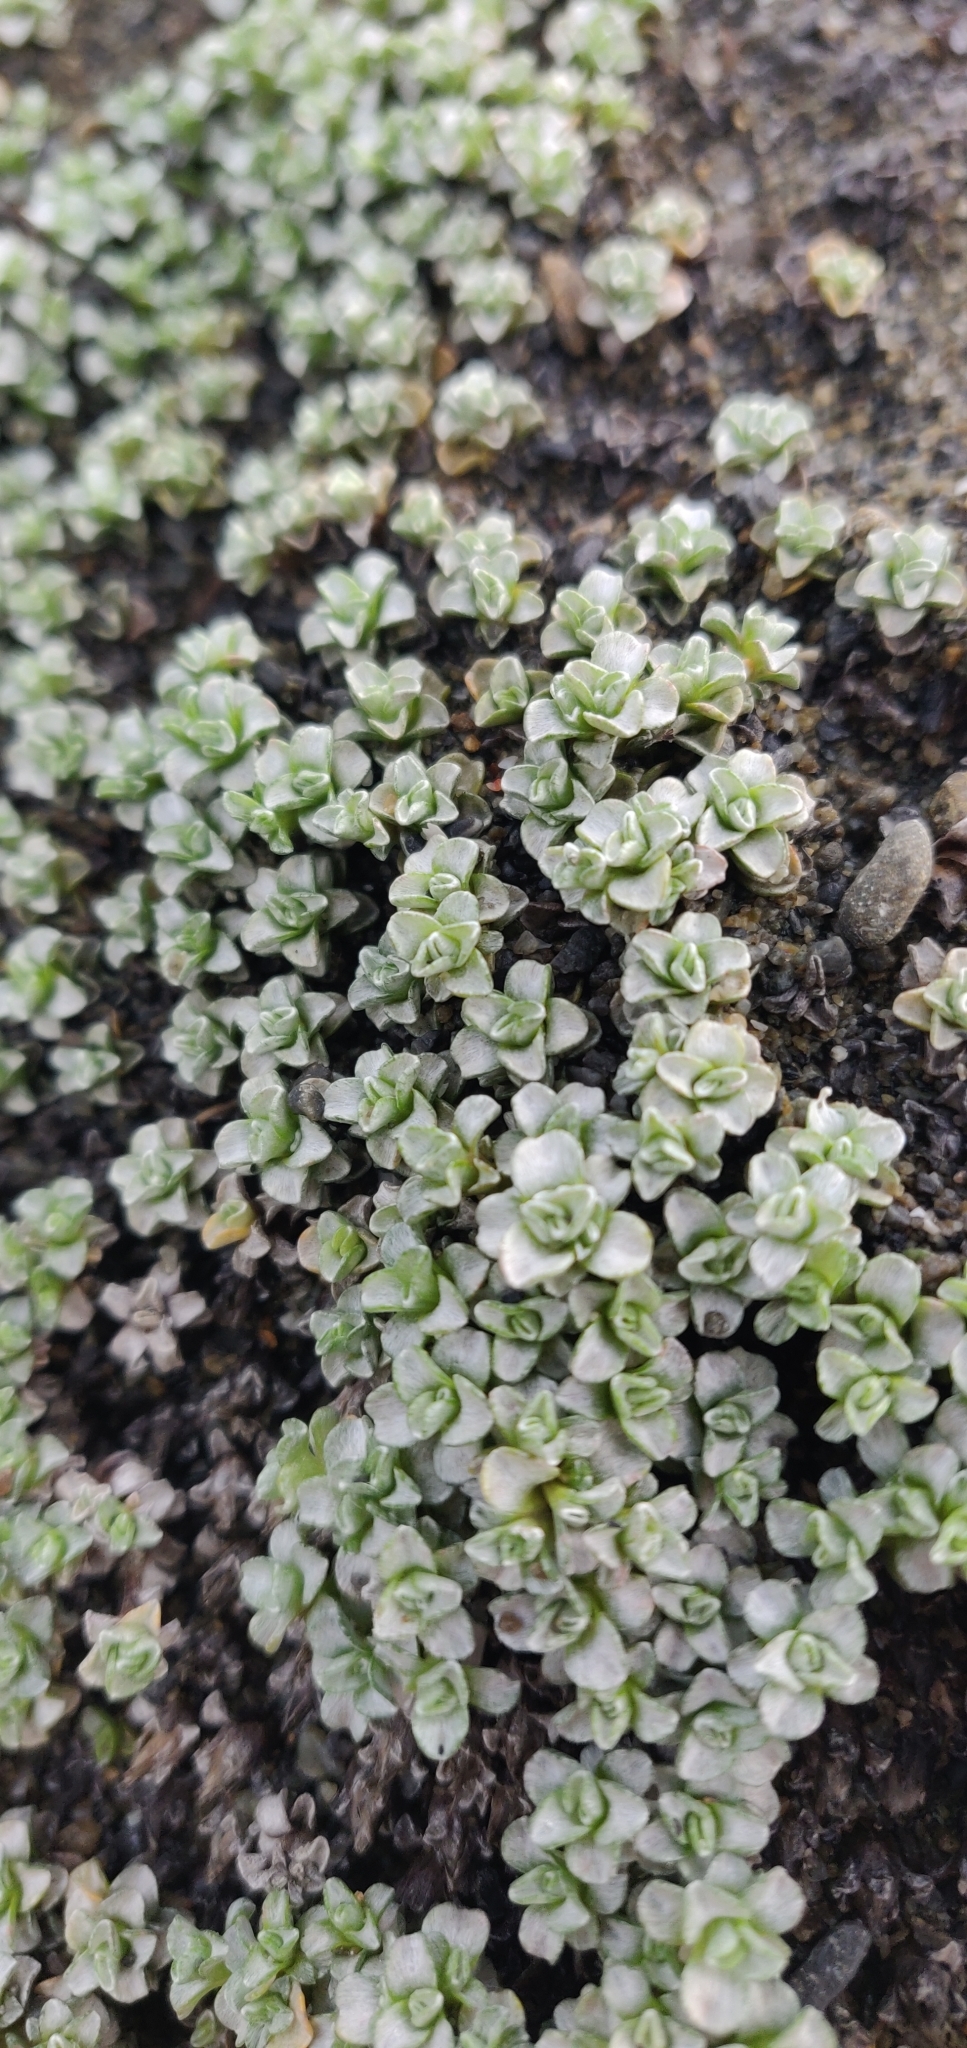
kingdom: Plantae
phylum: Tracheophyta
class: Magnoliopsida
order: Asterales
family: Asteraceae
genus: Raoulia
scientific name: Raoulia hookeri
